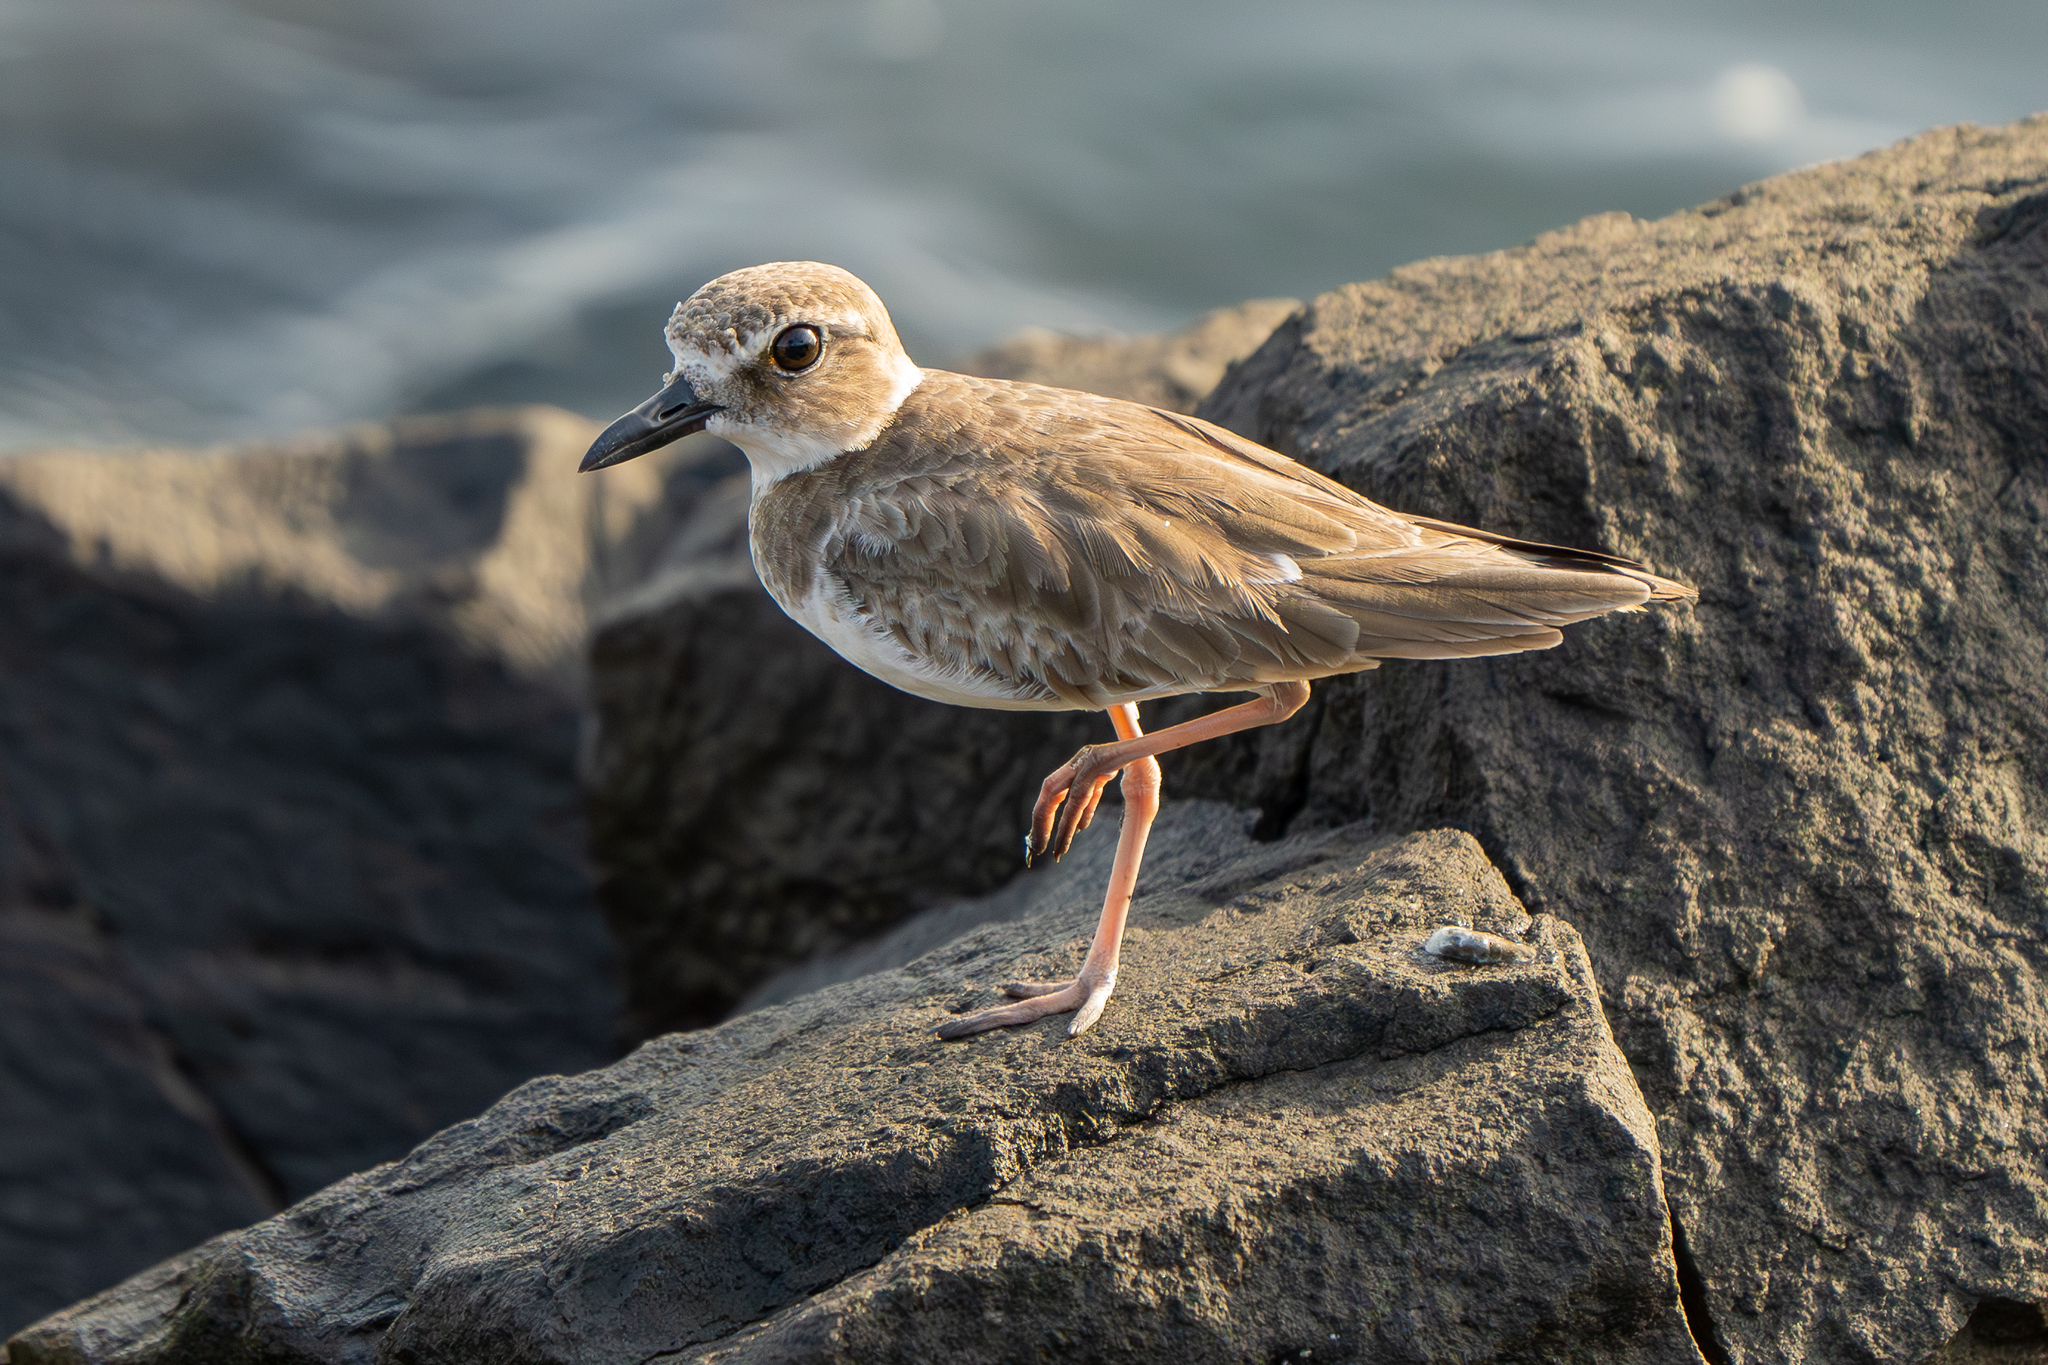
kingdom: Animalia
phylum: Chordata
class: Aves
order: Charadriiformes
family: Charadriidae
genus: Anarhynchus
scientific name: Anarhynchus
